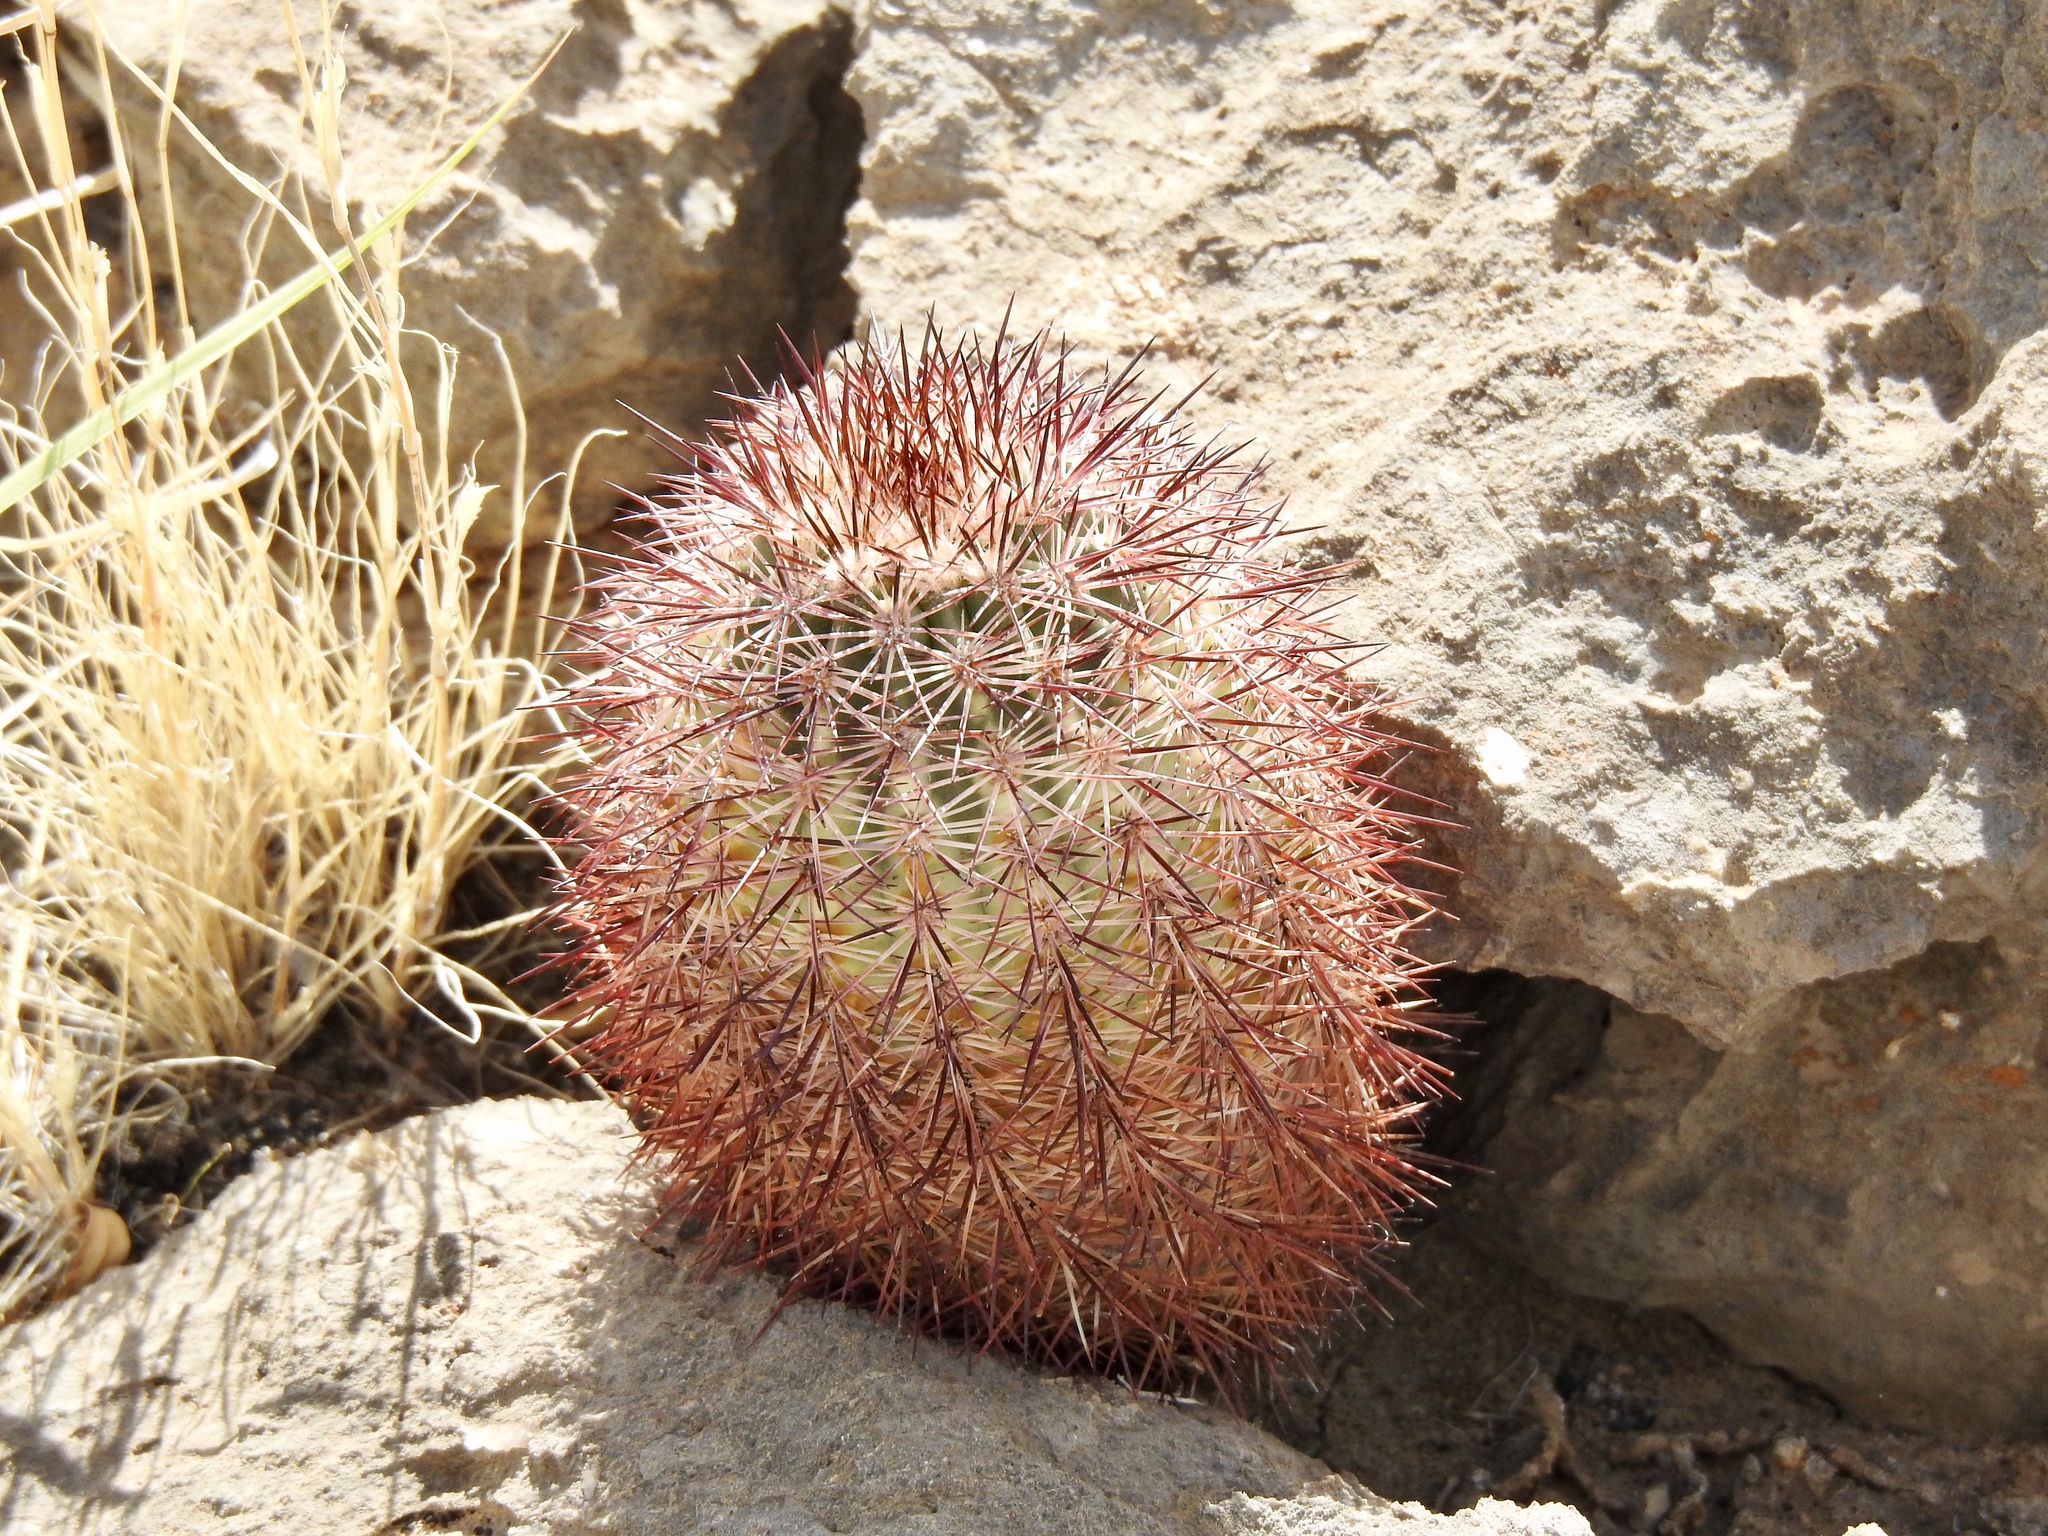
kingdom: Plantae
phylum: Tracheophyta
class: Magnoliopsida
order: Caryophyllales
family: Cactaceae
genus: Echinocereus
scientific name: Echinocereus dasyacanthus
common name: Spiny hedgehog cactus
